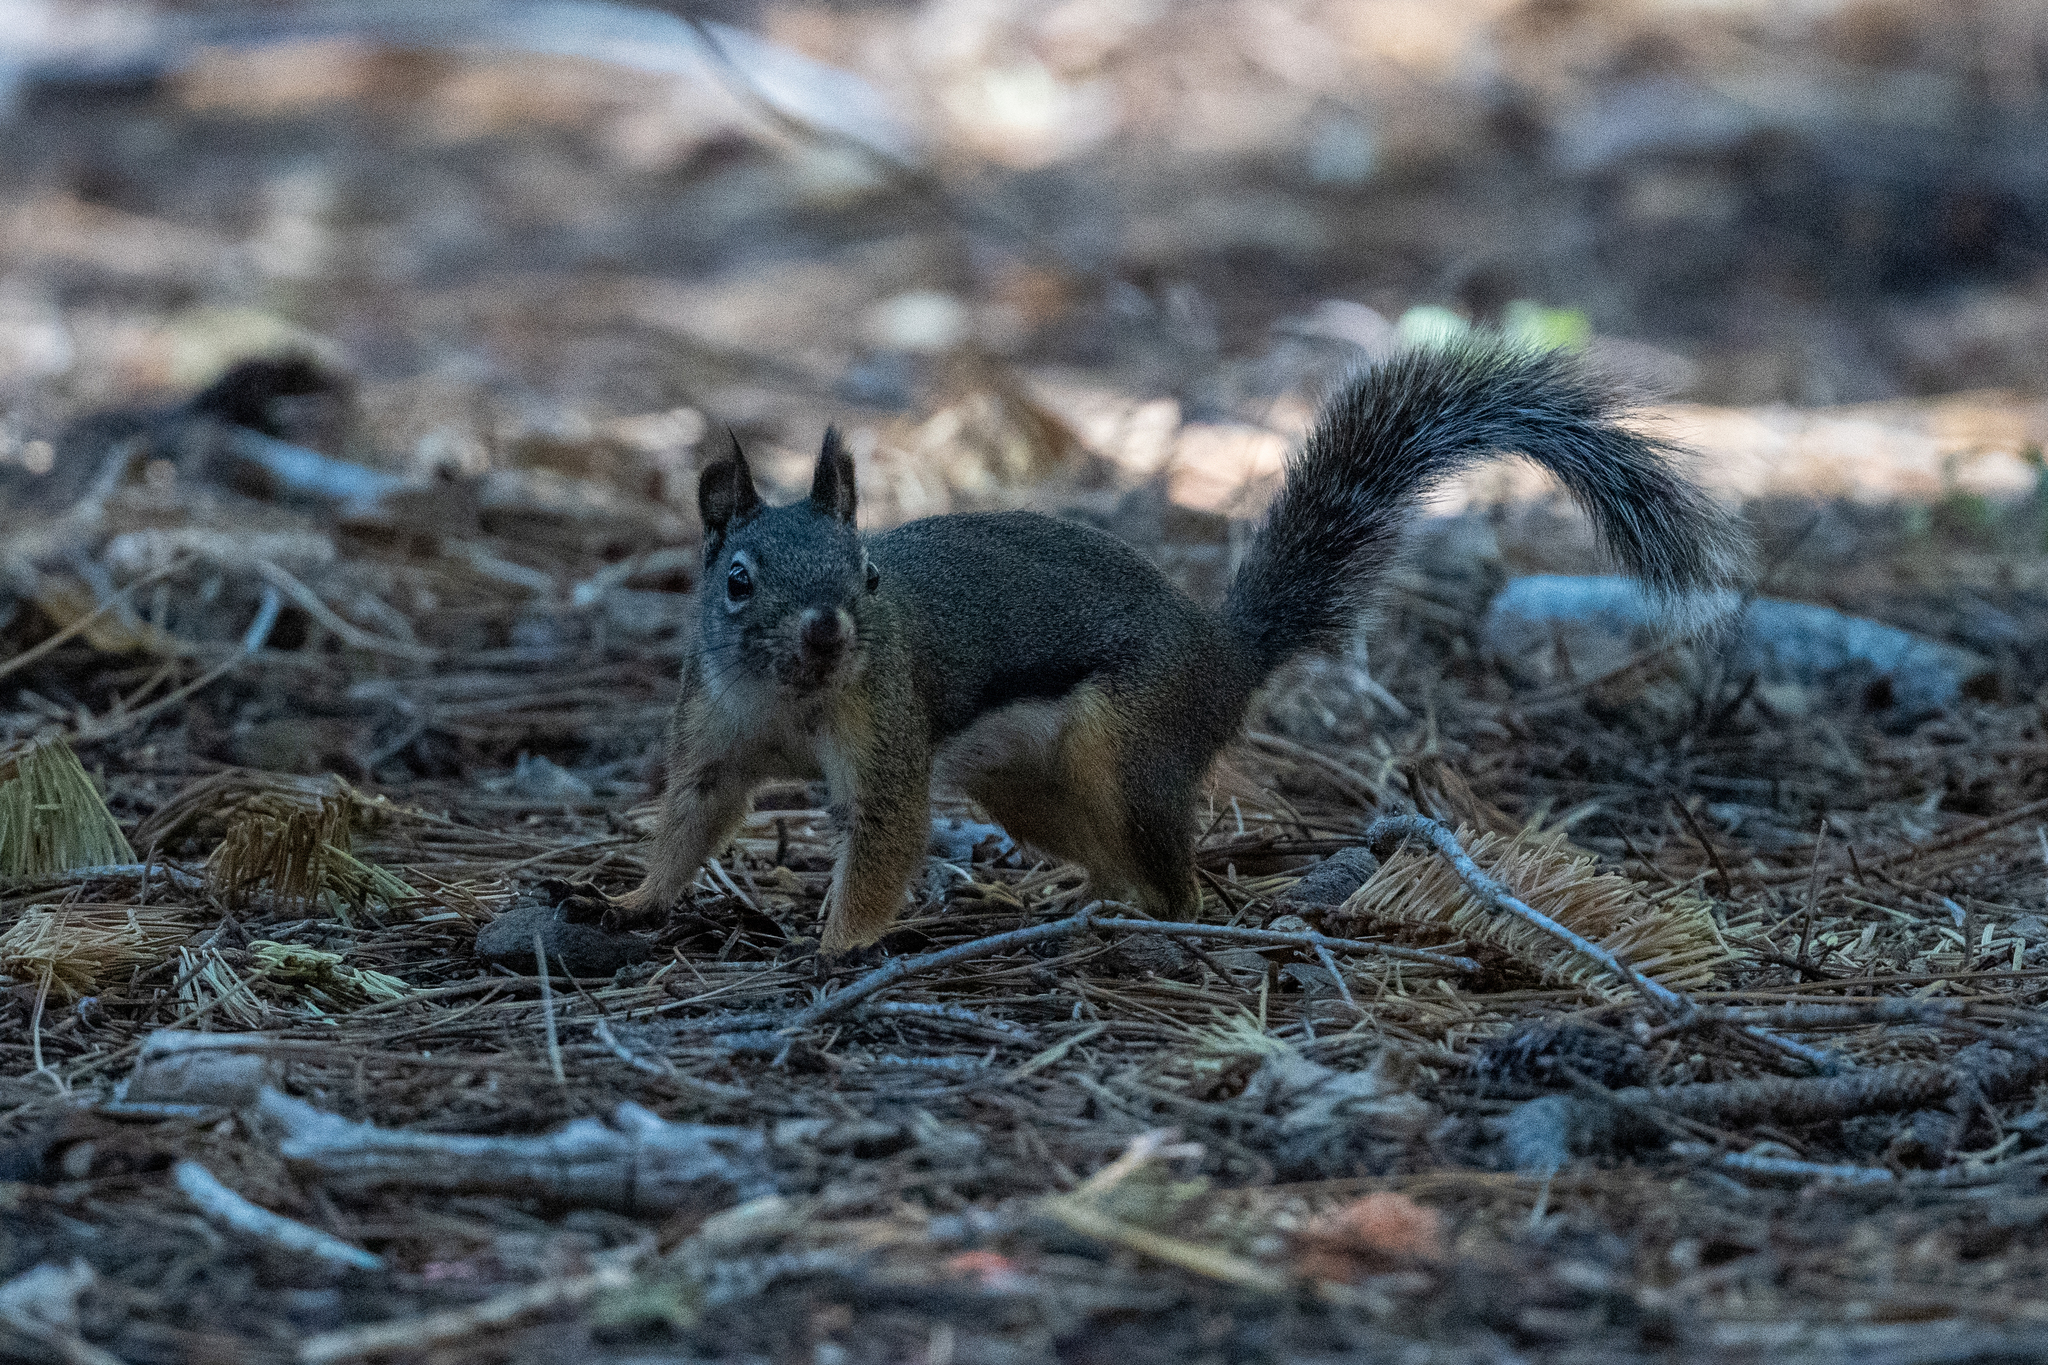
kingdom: Animalia
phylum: Chordata
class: Mammalia
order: Rodentia
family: Sciuridae
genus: Tamiasciurus
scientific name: Tamiasciurus douglasii
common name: Douglas's squirrel
